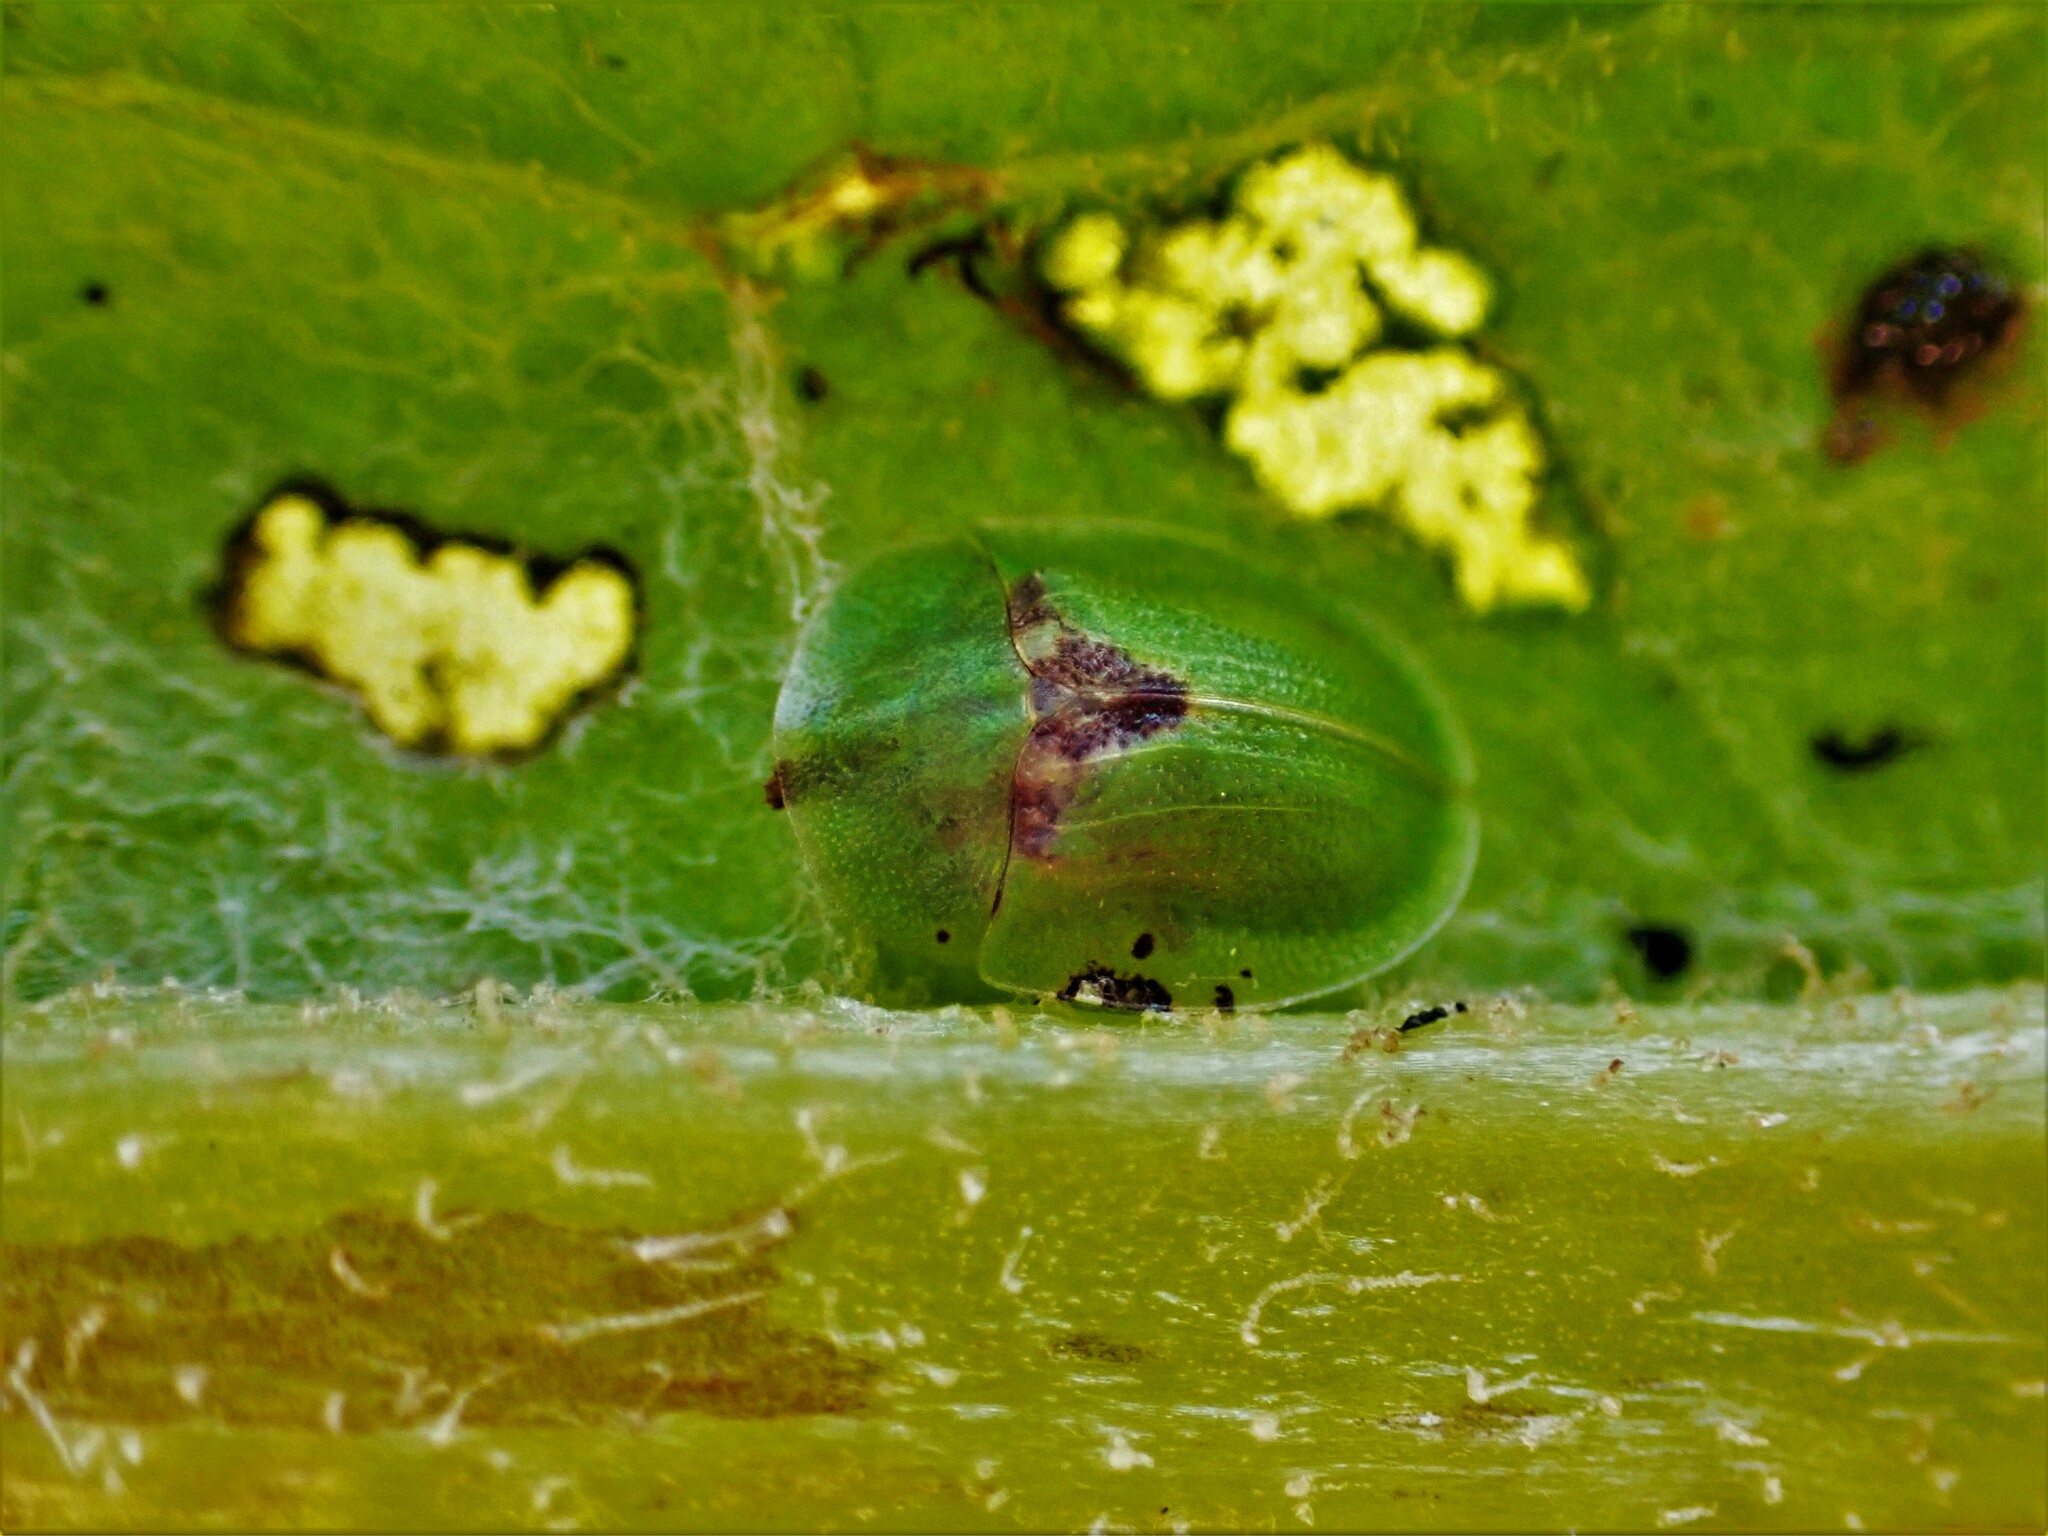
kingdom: Animalia
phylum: Arthropoda
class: Insecta
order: Coleoptera
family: Chrysomelidae
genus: Cassida
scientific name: Cassida rubiginosa
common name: Thistle tortoise beetle
